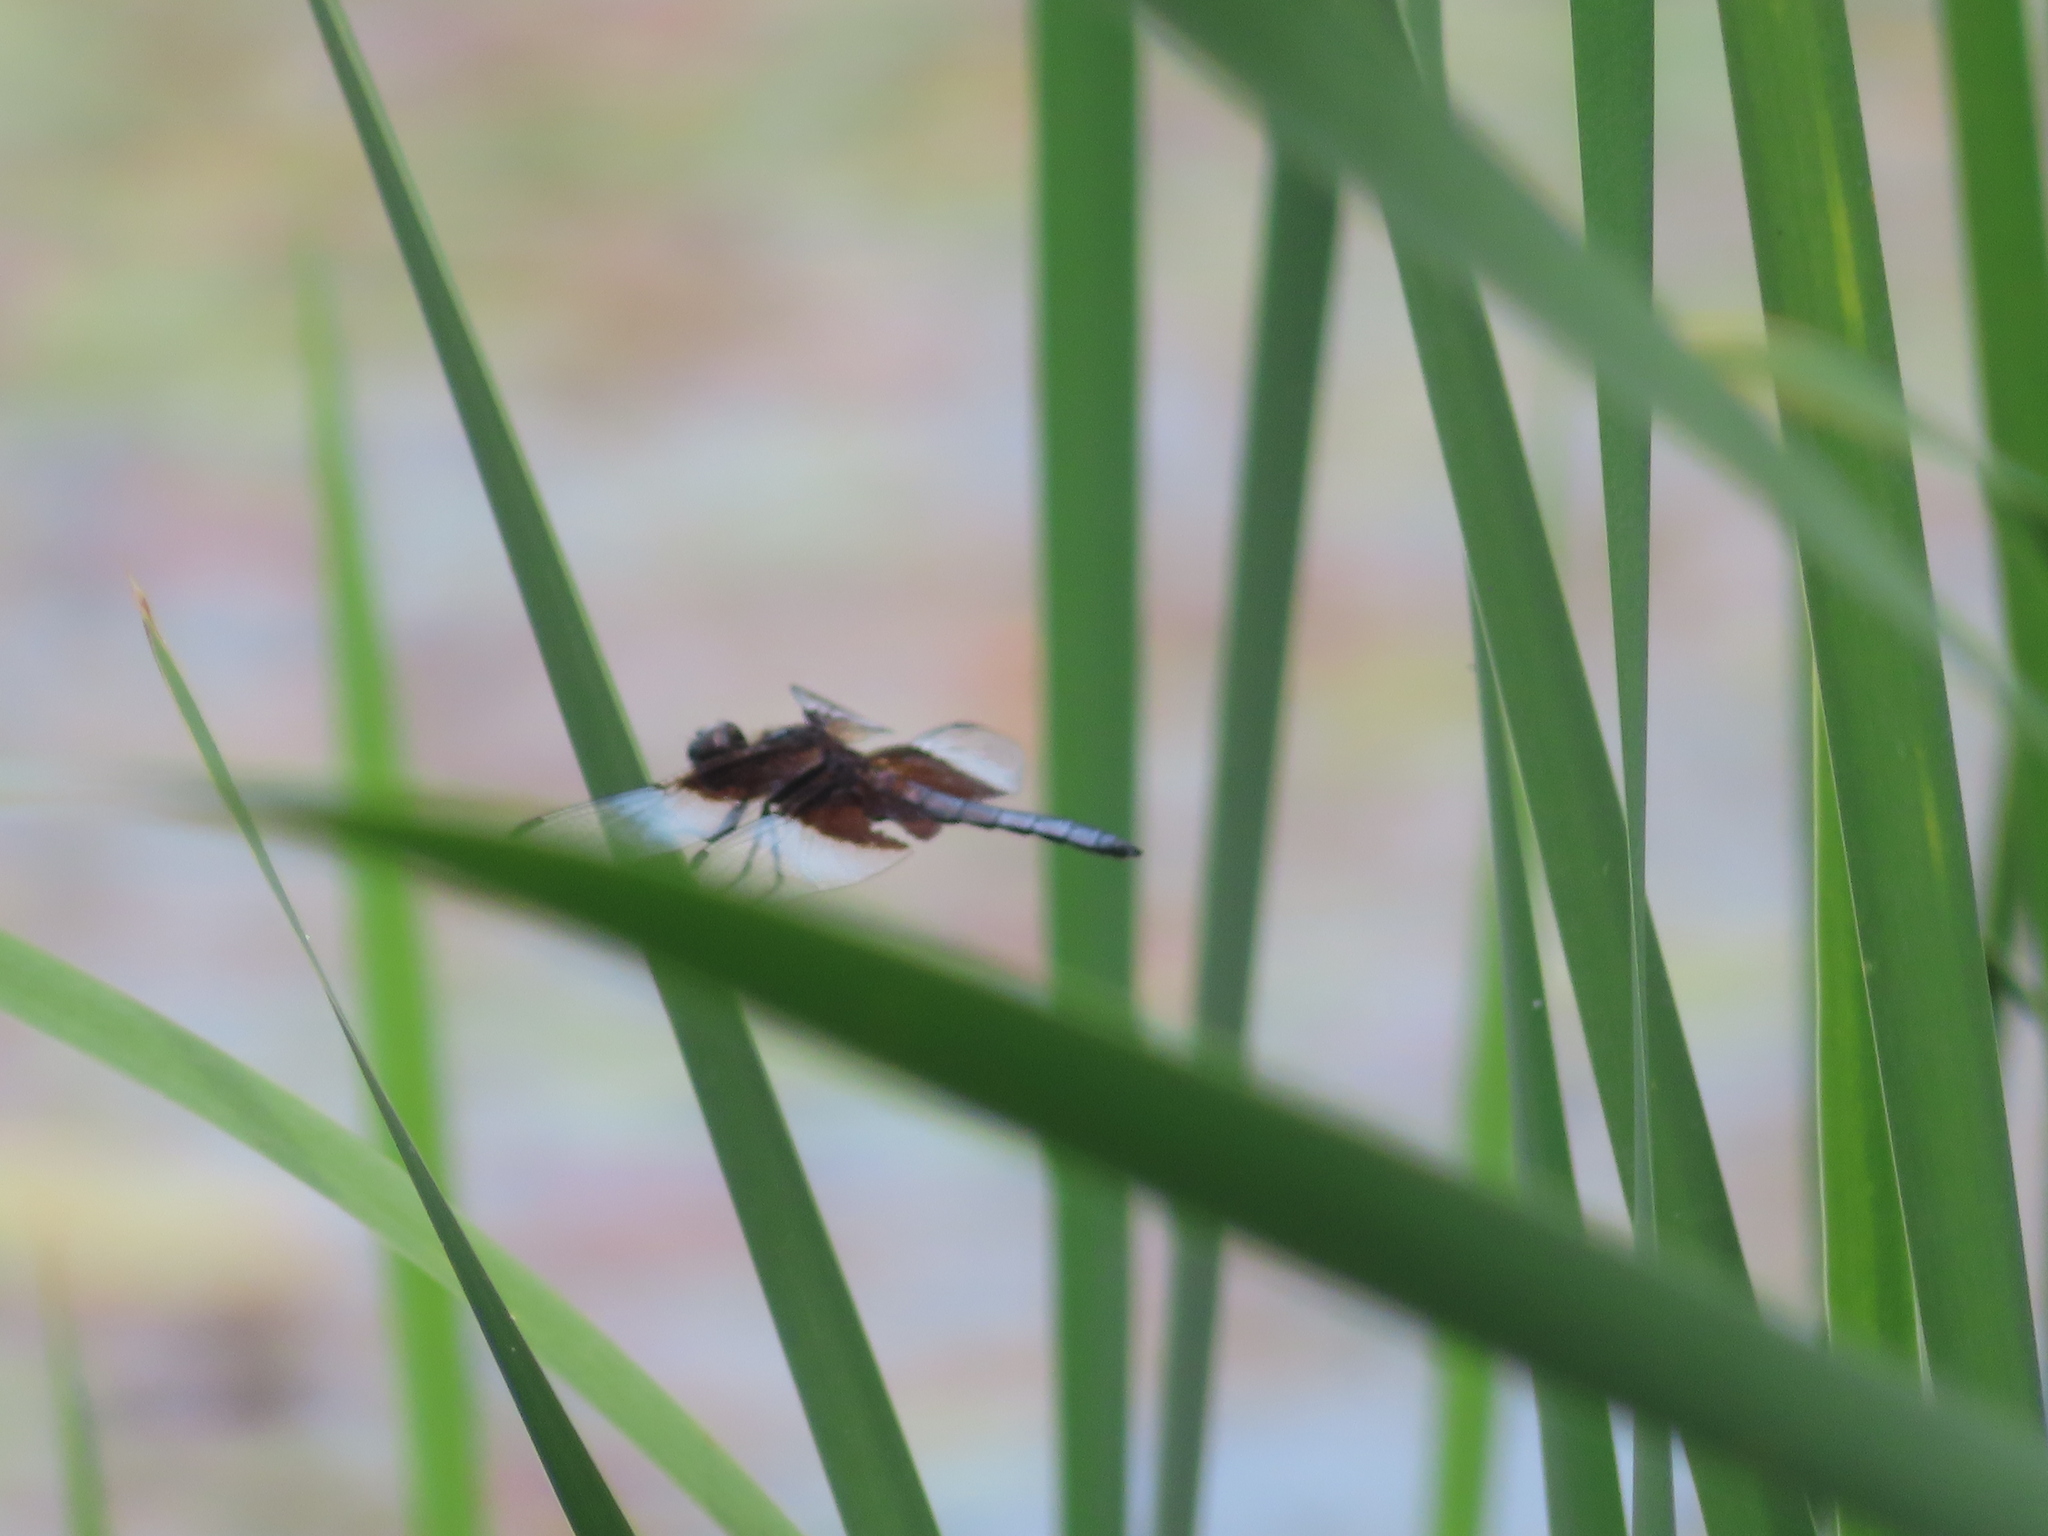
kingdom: Animalia
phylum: Arthropoda
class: Insecta
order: Odonata
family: Libellulidae
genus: Libellula
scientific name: Libellula luctuosa
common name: Widow skimmer
